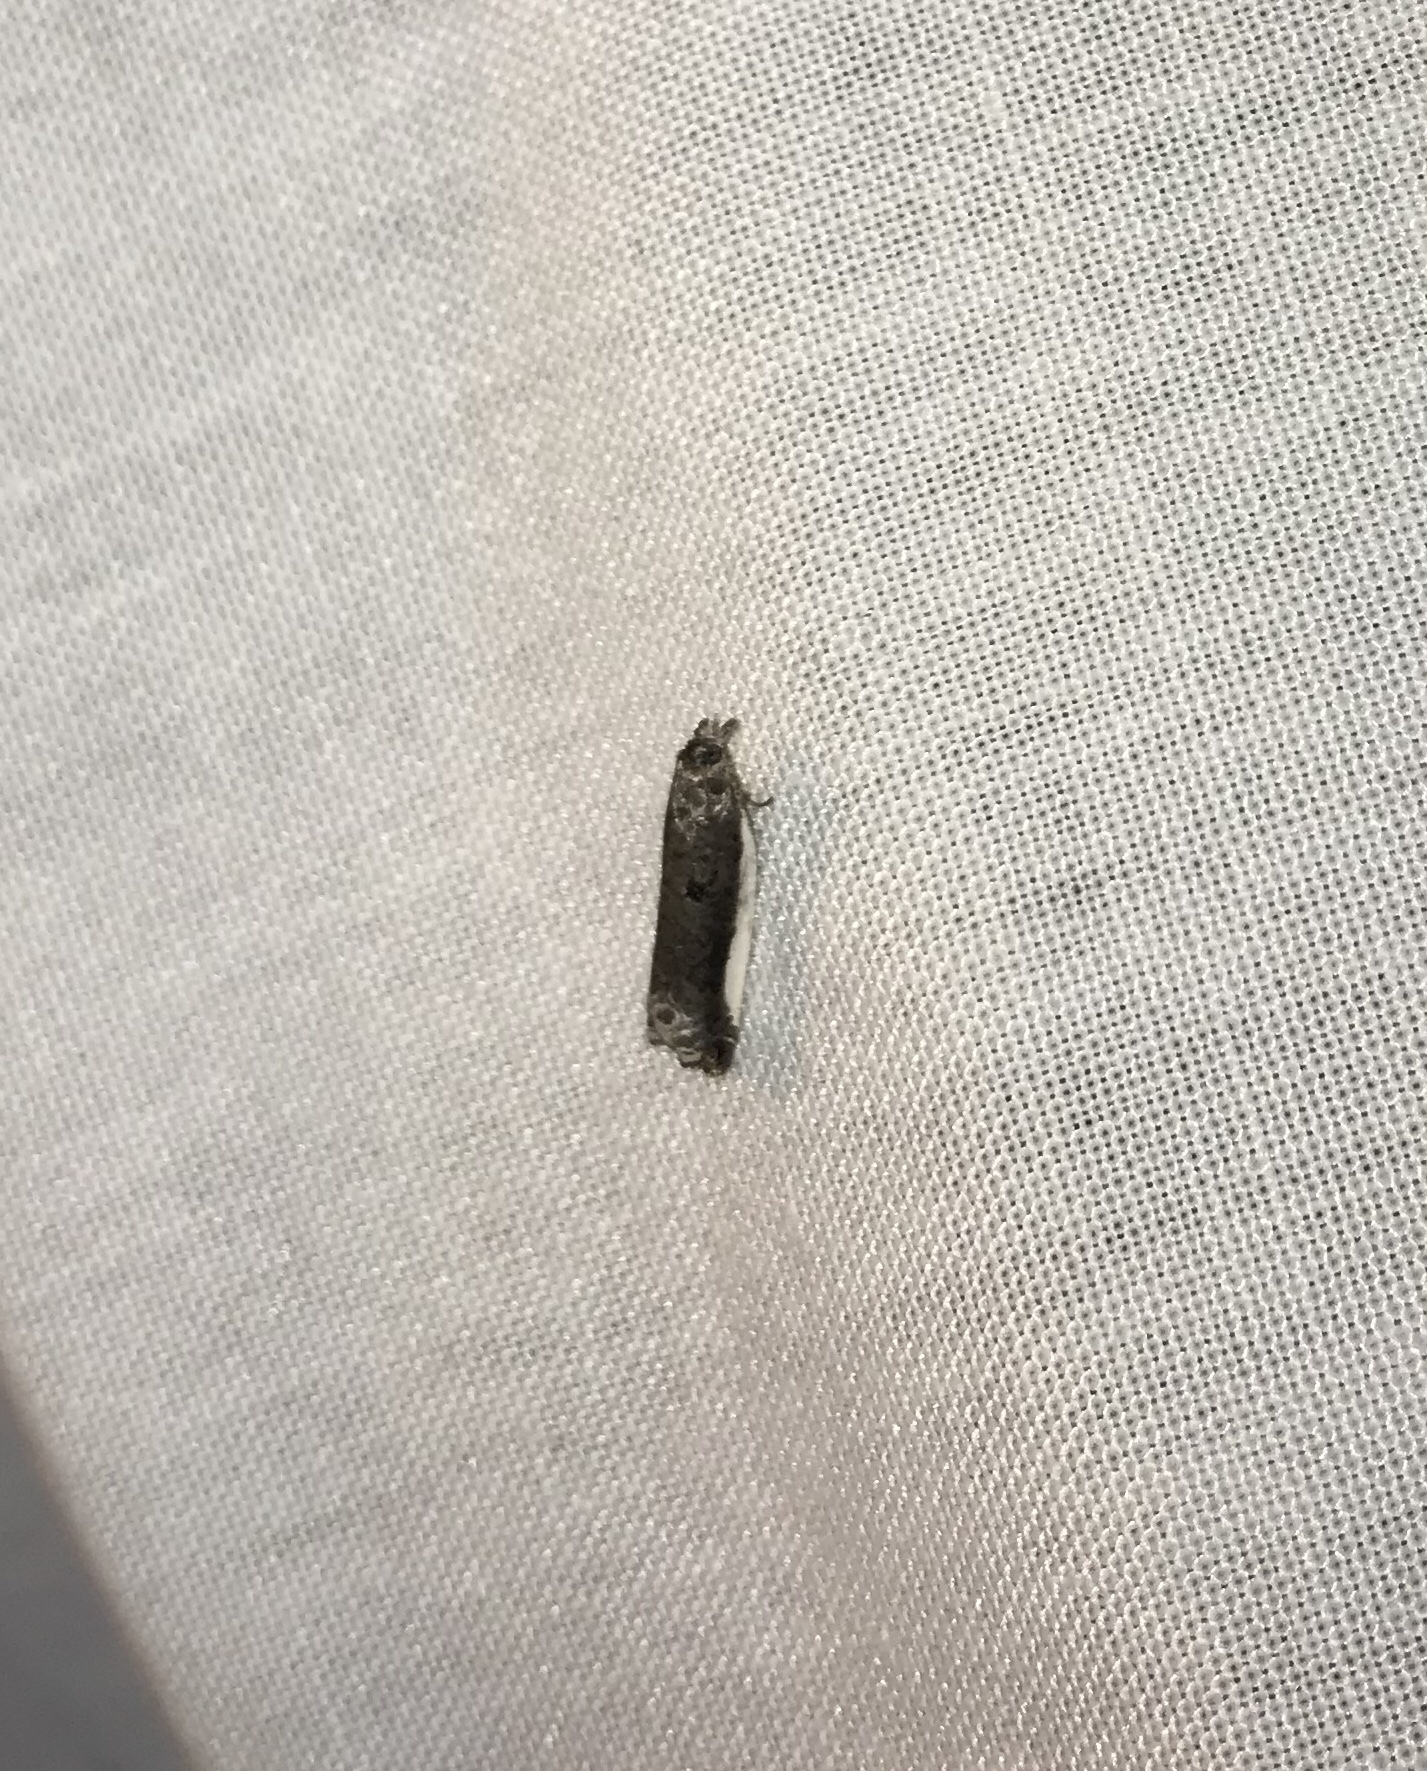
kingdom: Animalia
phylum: Arthropoda
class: Insecta
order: Lepidoptera
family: Tortricidae
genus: Ancylis
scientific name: Ancylis albacostana
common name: White-edged ancylis moth
